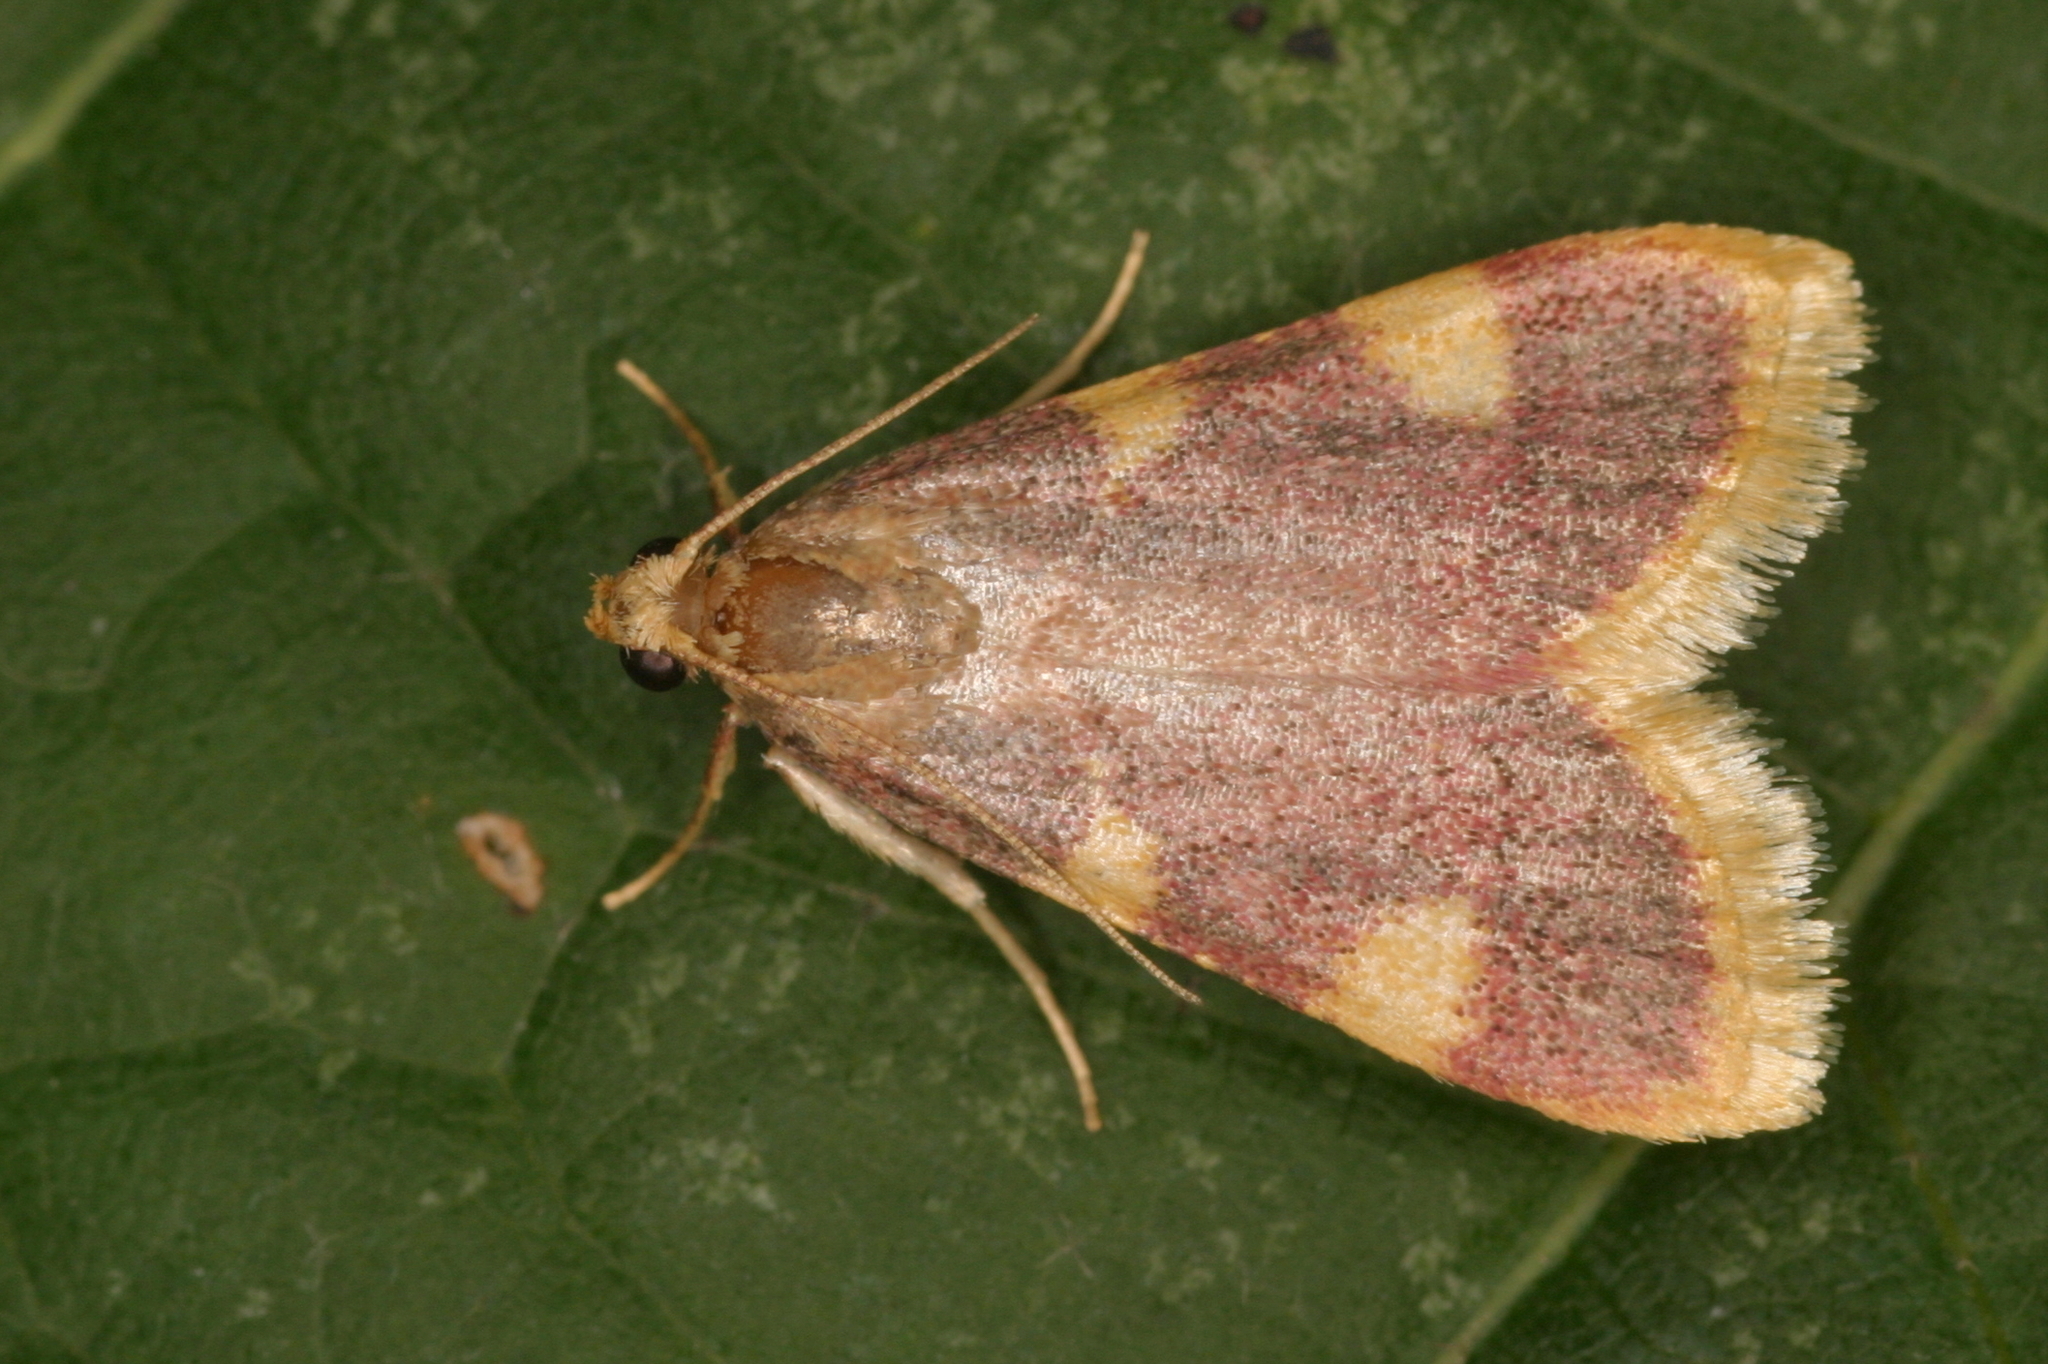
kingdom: Animalia
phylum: Arthropoda
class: Insecta
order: Lepidoptera
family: Pyralidae
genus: Hypsopygia
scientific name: Hypsopygia costalis
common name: Gold triangle
